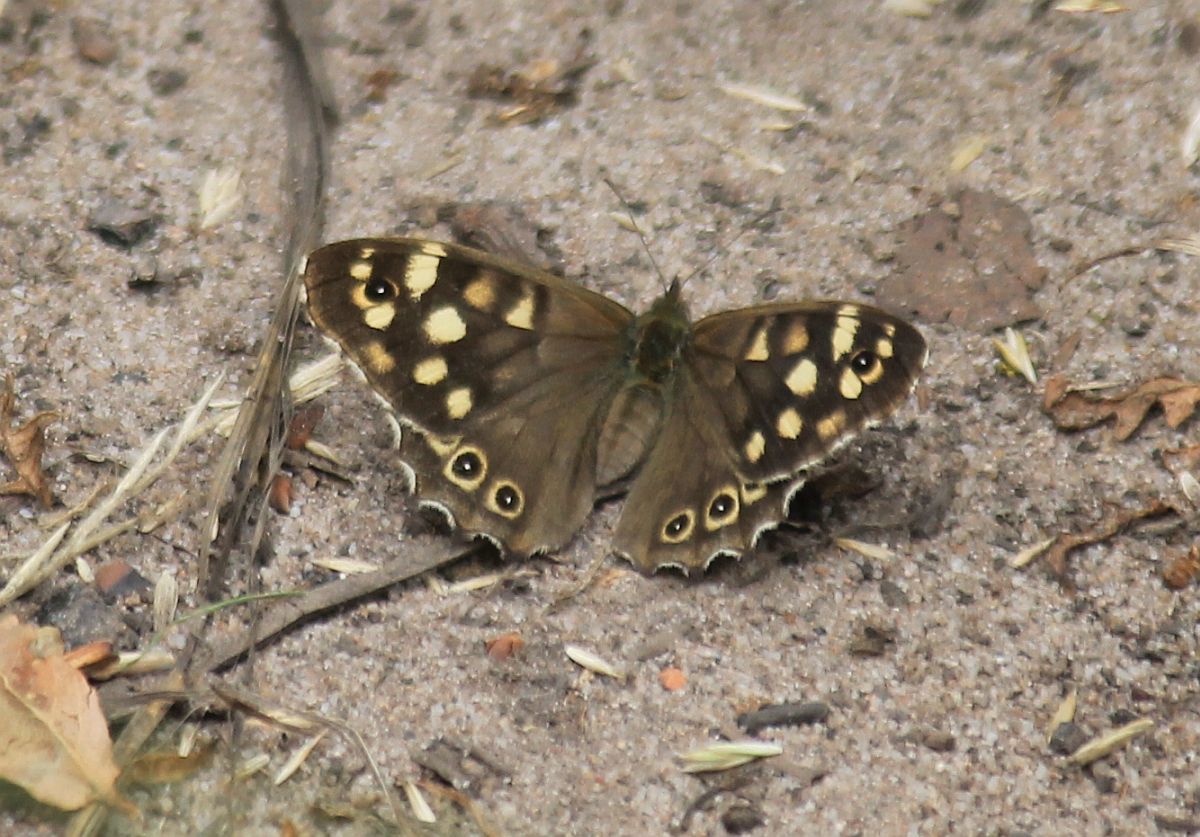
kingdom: Animalia
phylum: Arthropoda
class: Insecta
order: Lepidoptera
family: Nymphalidae
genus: Pararge
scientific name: Pararge aegeria
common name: Speckled wood
